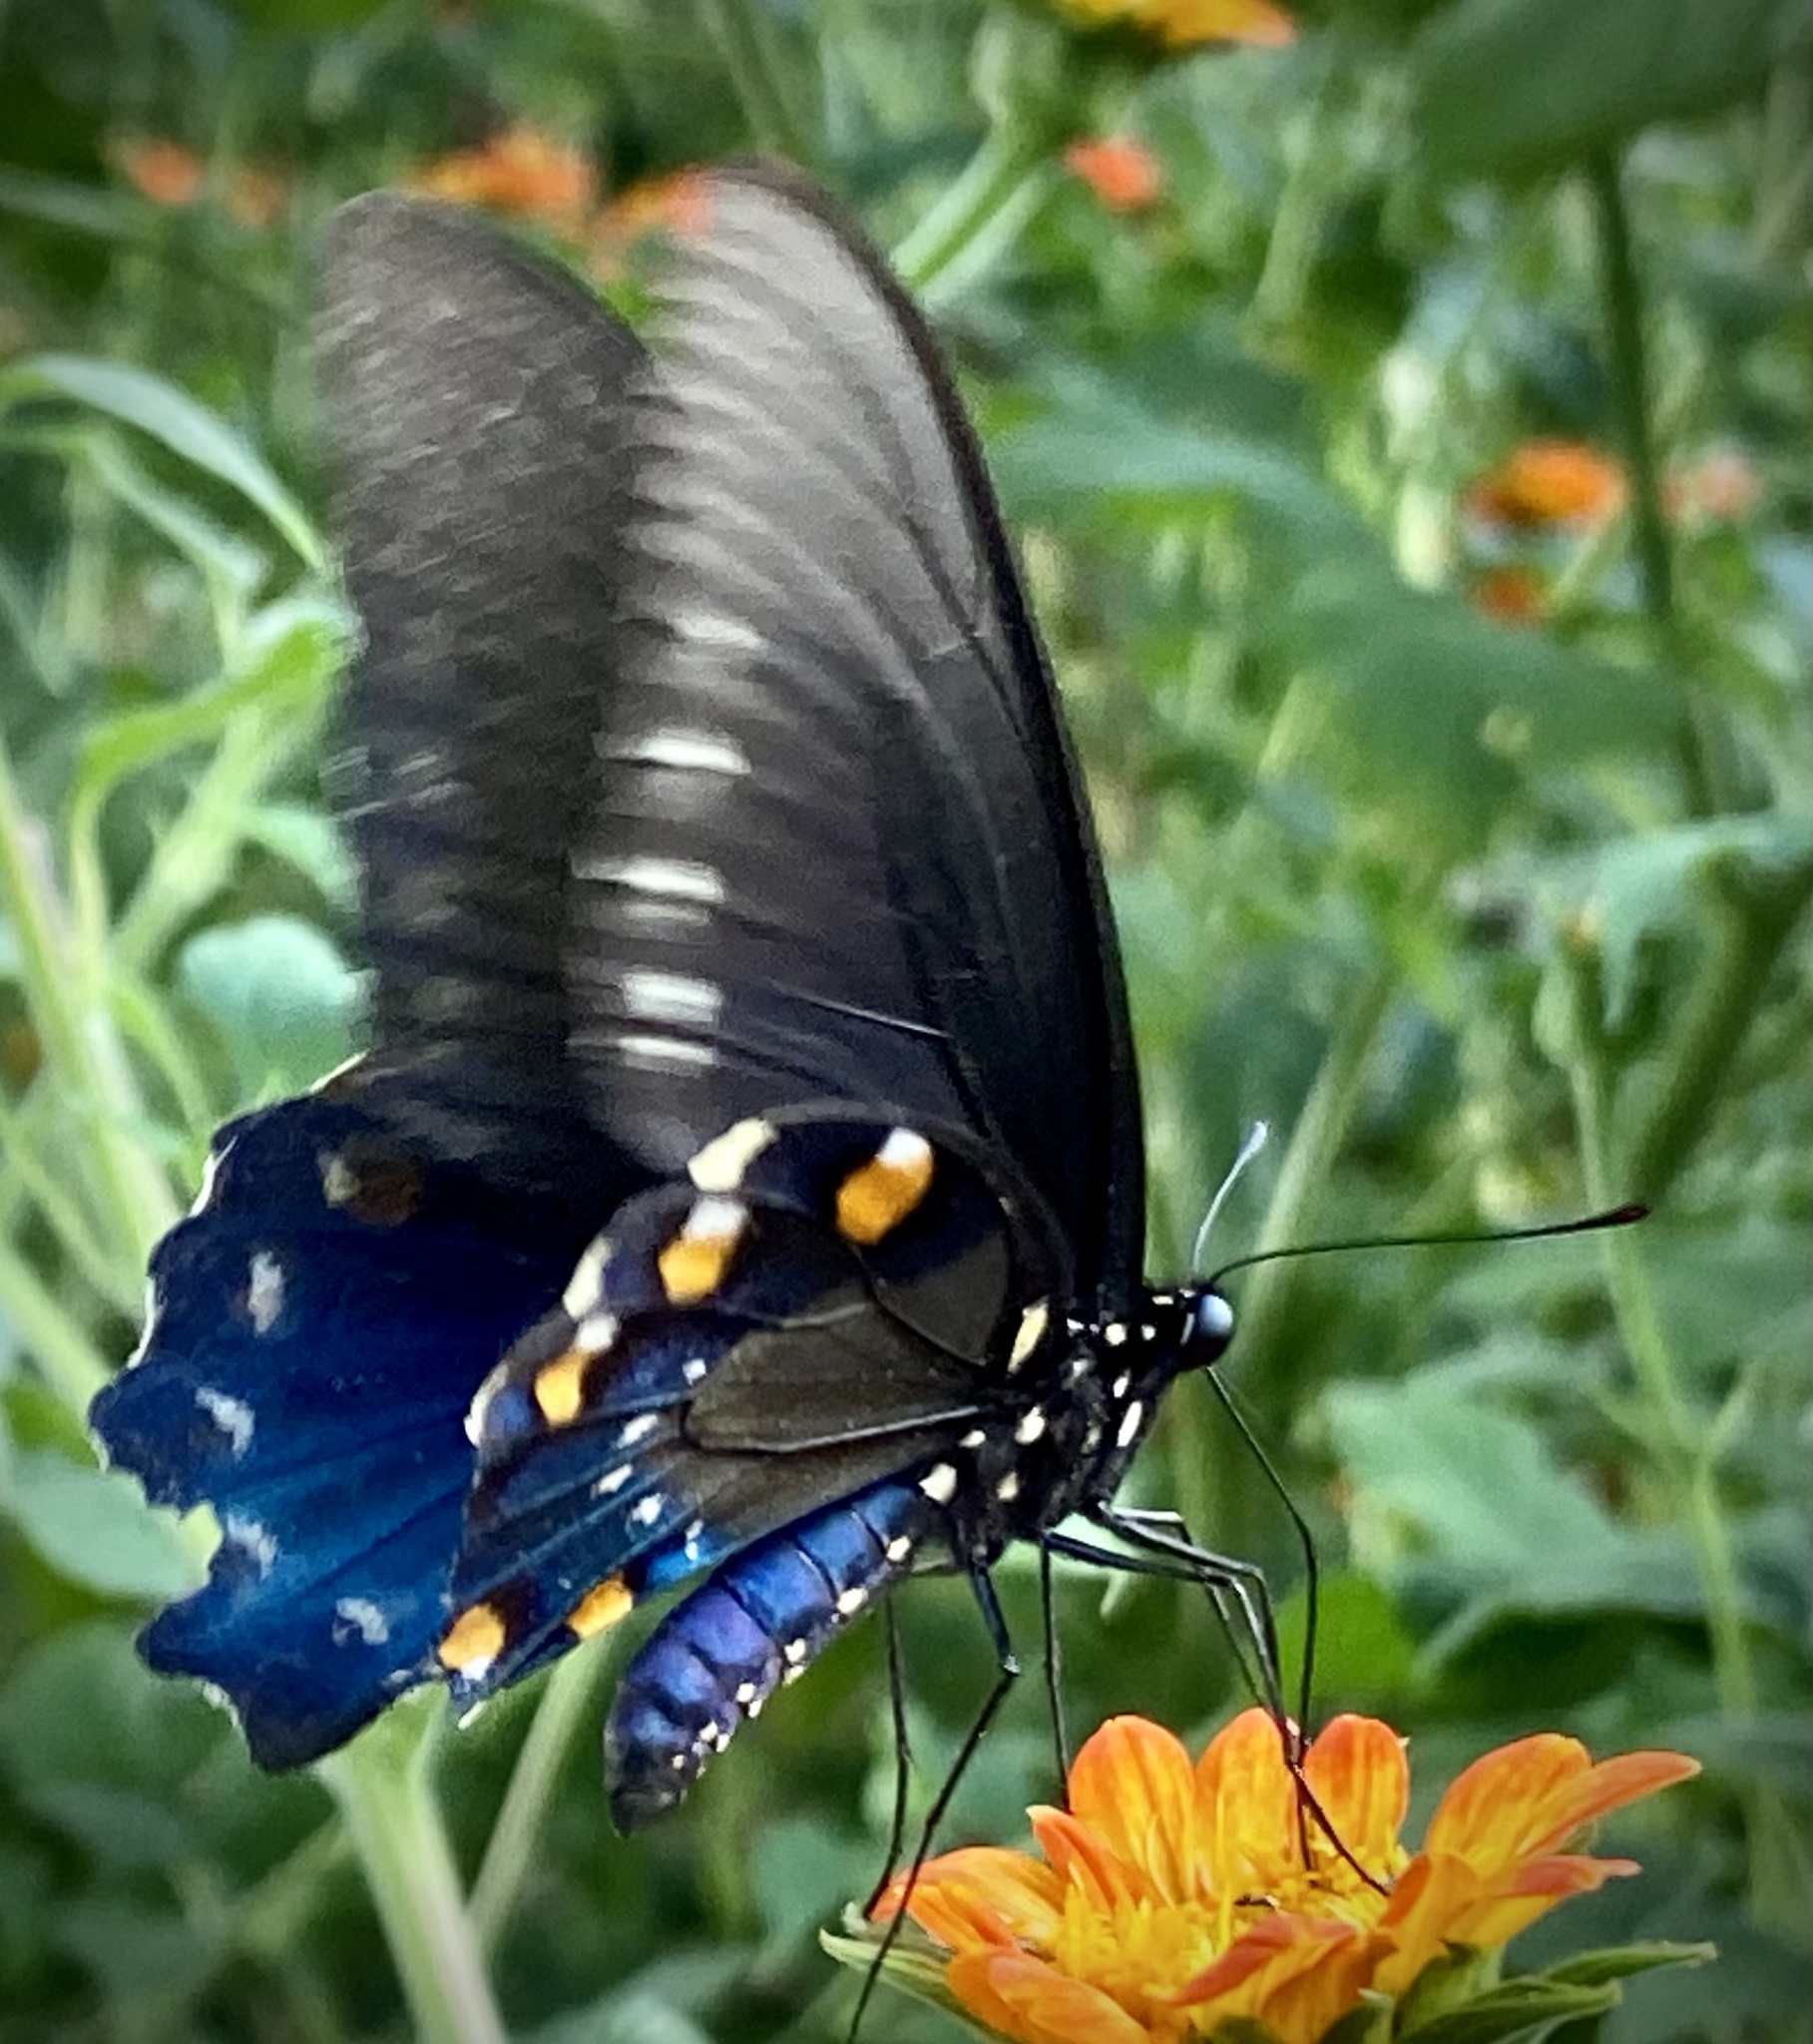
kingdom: Animalia
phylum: Arthropoda
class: Insecta
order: Lepidoptera
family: Papilionidae
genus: Battus
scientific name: Battus philenor
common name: Pipevine swallowtail
